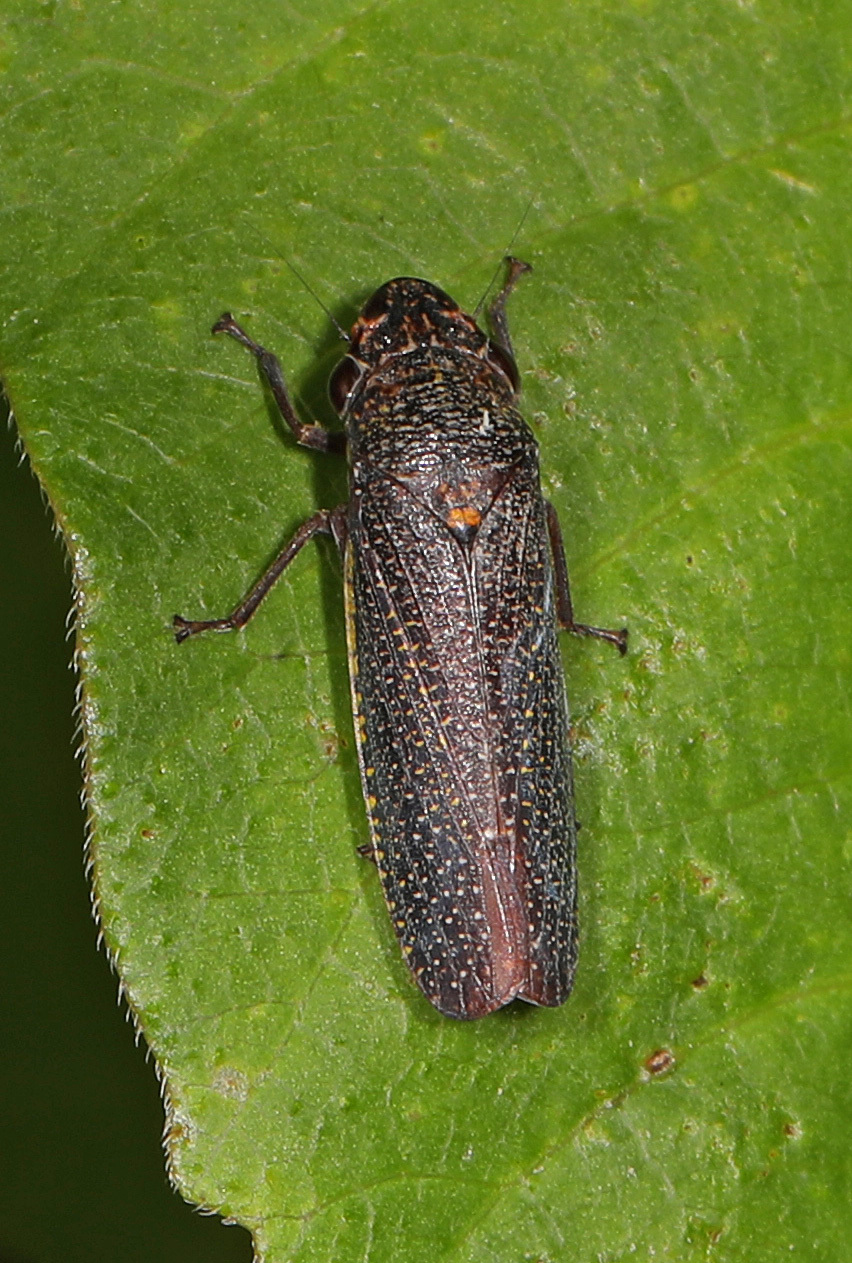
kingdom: Animalia
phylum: Arthropoda
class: Insecta
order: Hemiptera
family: Cicadellidae
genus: Paraulacizes
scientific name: Paraulacizes irrorata
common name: Speckled sharpshooter
